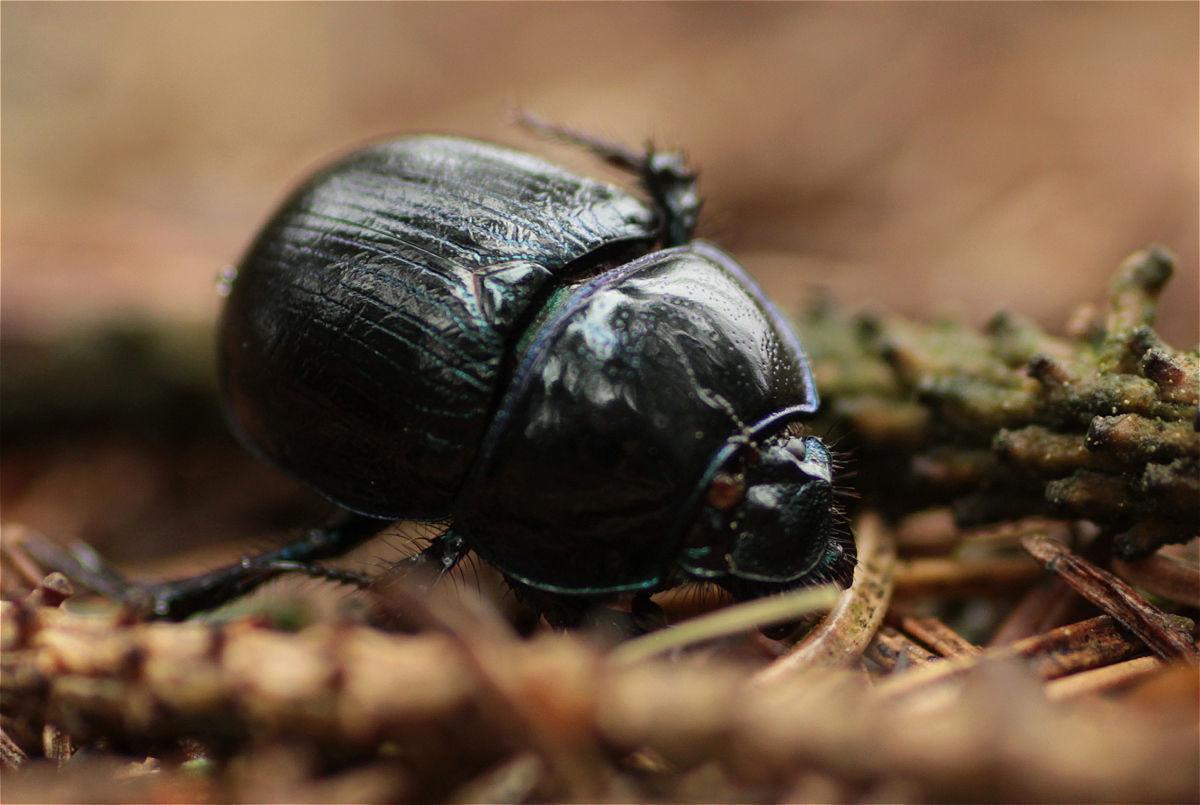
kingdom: Animalia
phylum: Arthropoda
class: Insecta
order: Coleoptera
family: Geotrupidae
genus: Anoplotrupes
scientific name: Anoplotrupes stercorosus
